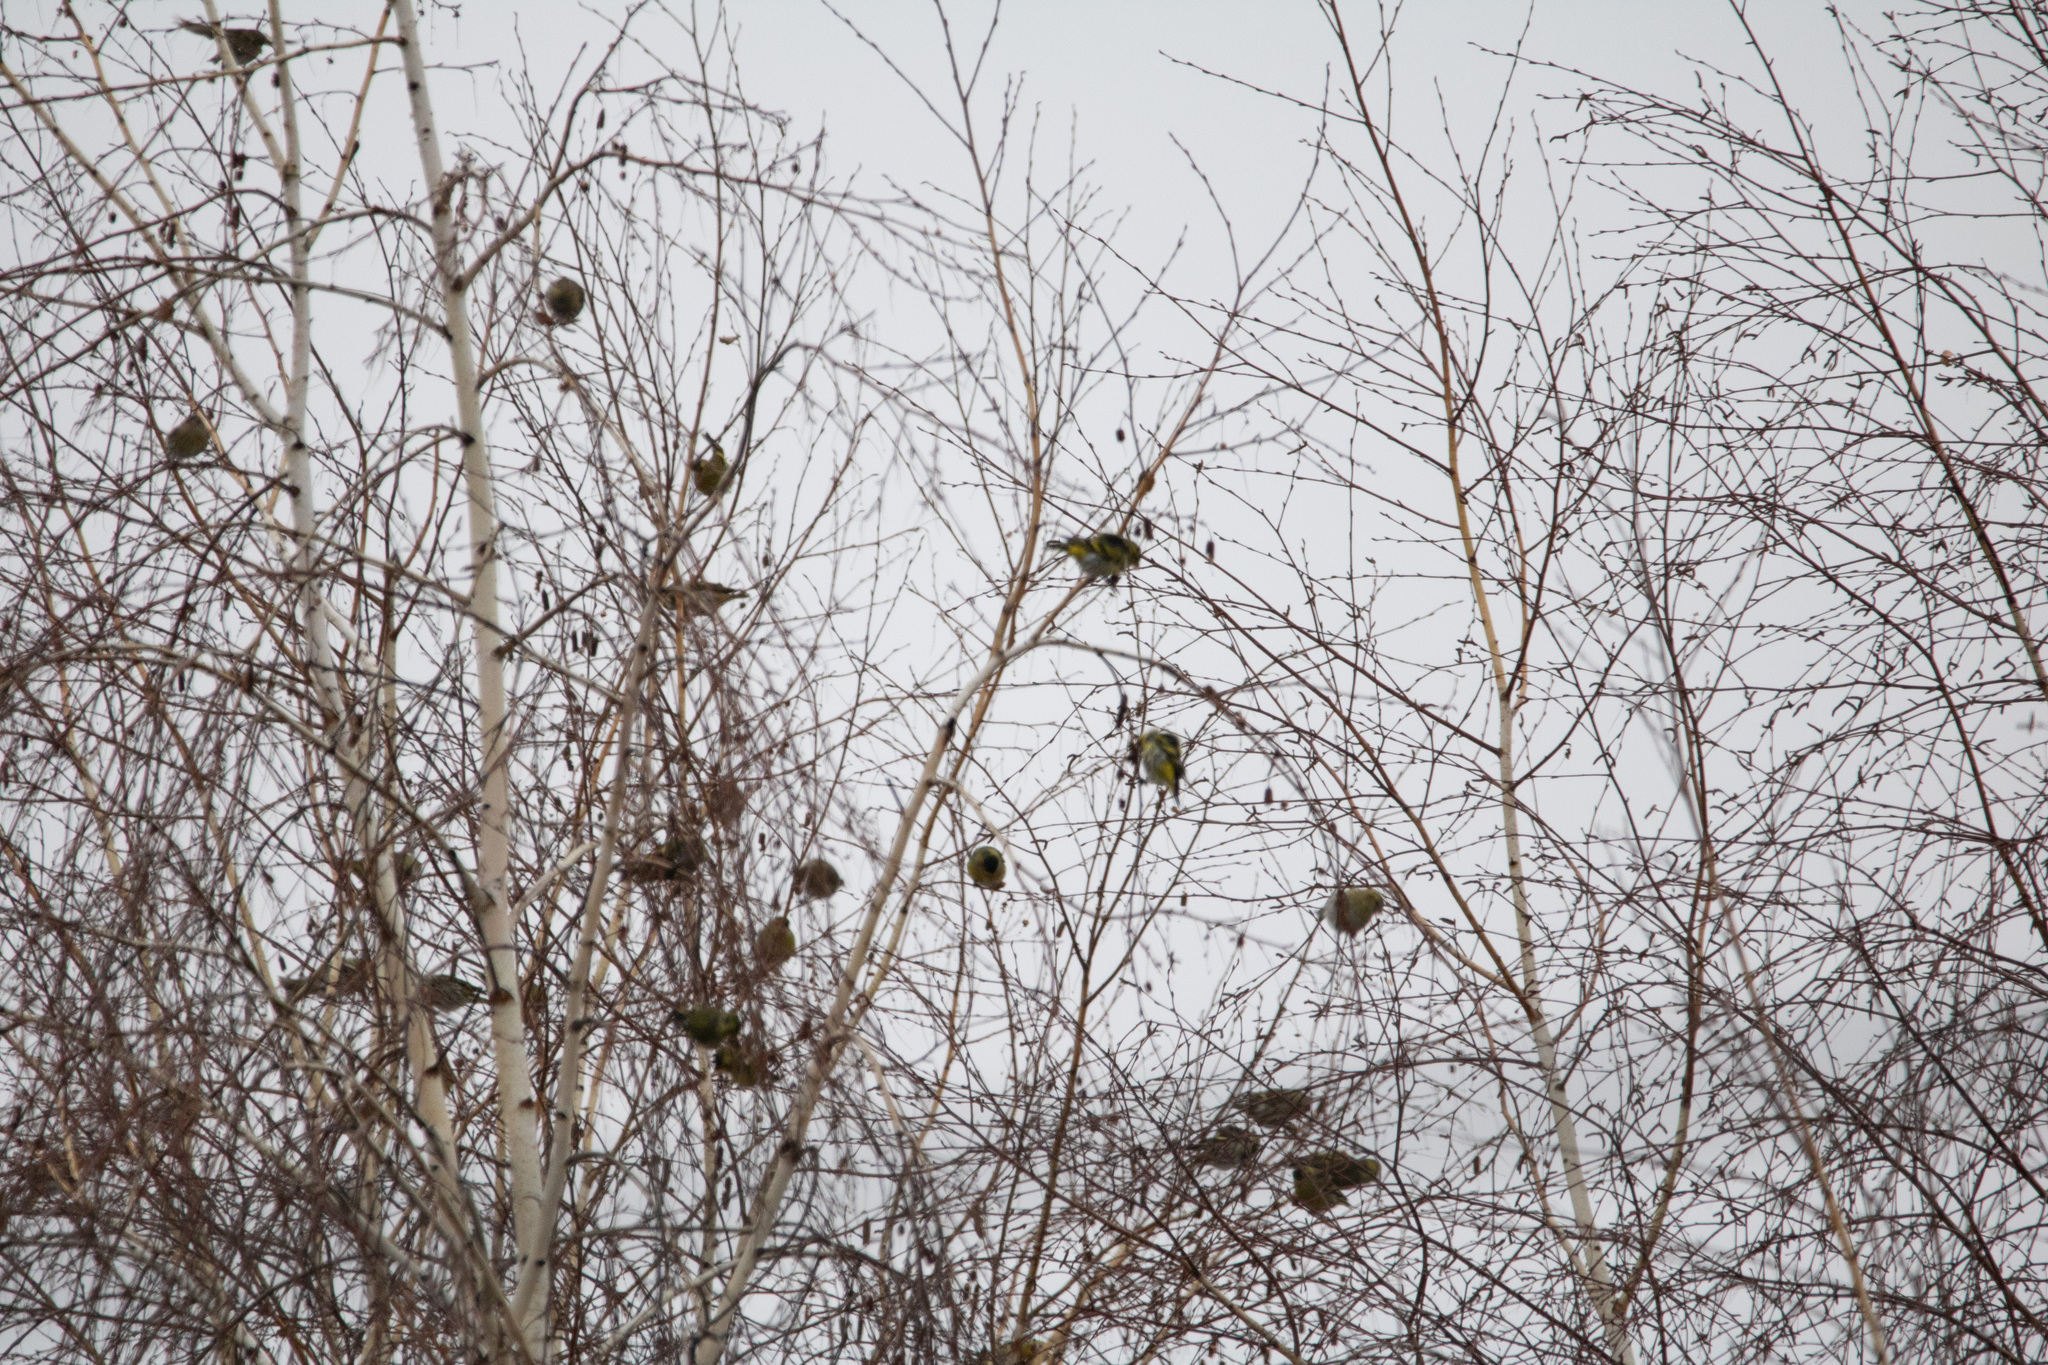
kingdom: Animalia
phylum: Chordata
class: Aves
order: Passeriformes
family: Fringillidae
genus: Spinus
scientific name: Spinus spinus
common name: Eurasian siskin
